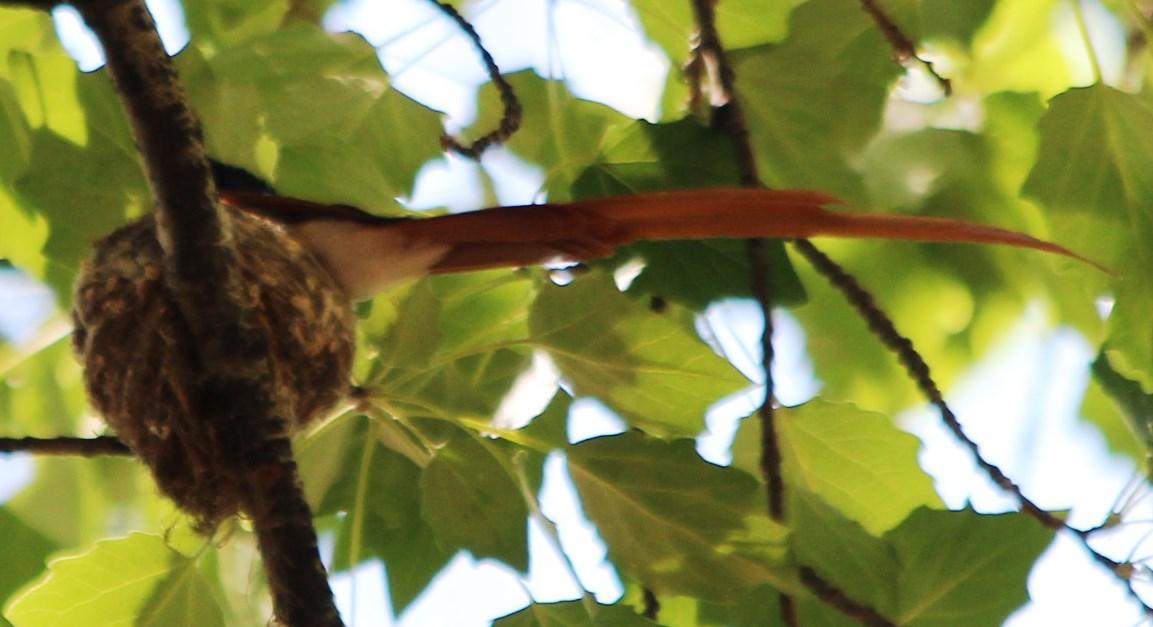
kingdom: Animalia
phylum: Chordata
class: Aves
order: Passeriformes
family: Monarchidae
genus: Terpsiphone
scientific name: Terpsiphone viridis
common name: African paradise flycatcher
